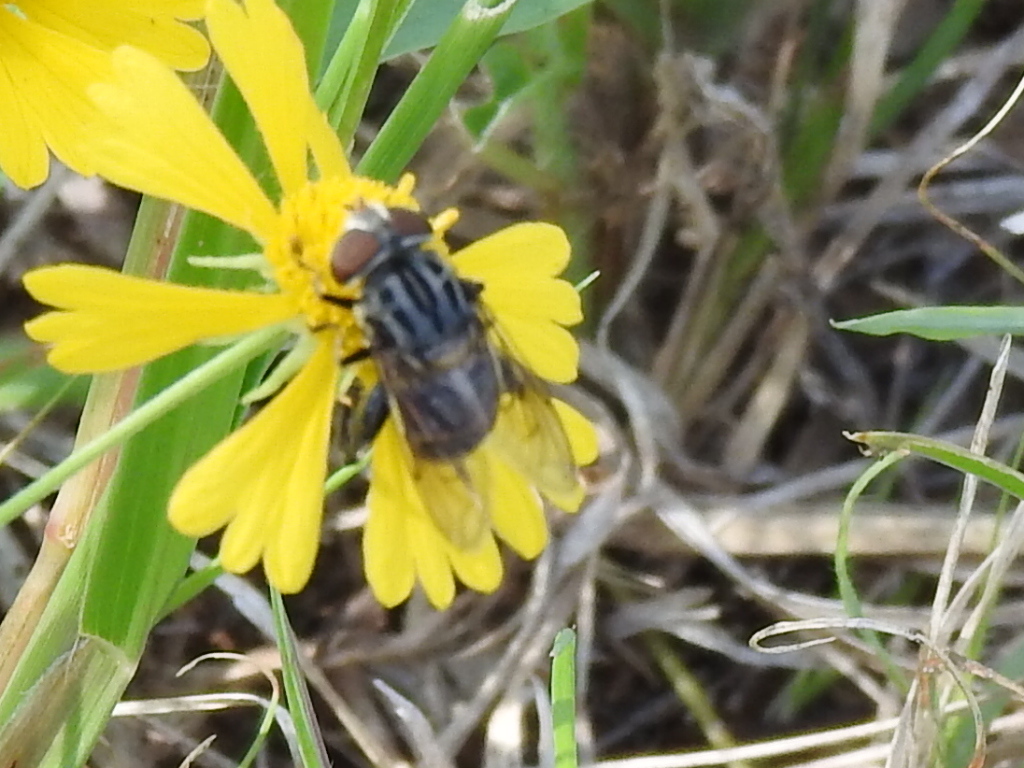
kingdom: Animalia
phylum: Arthropoda
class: Insecta
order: Diptera
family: Syrphidae
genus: Palpada
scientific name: Palpada furcata
